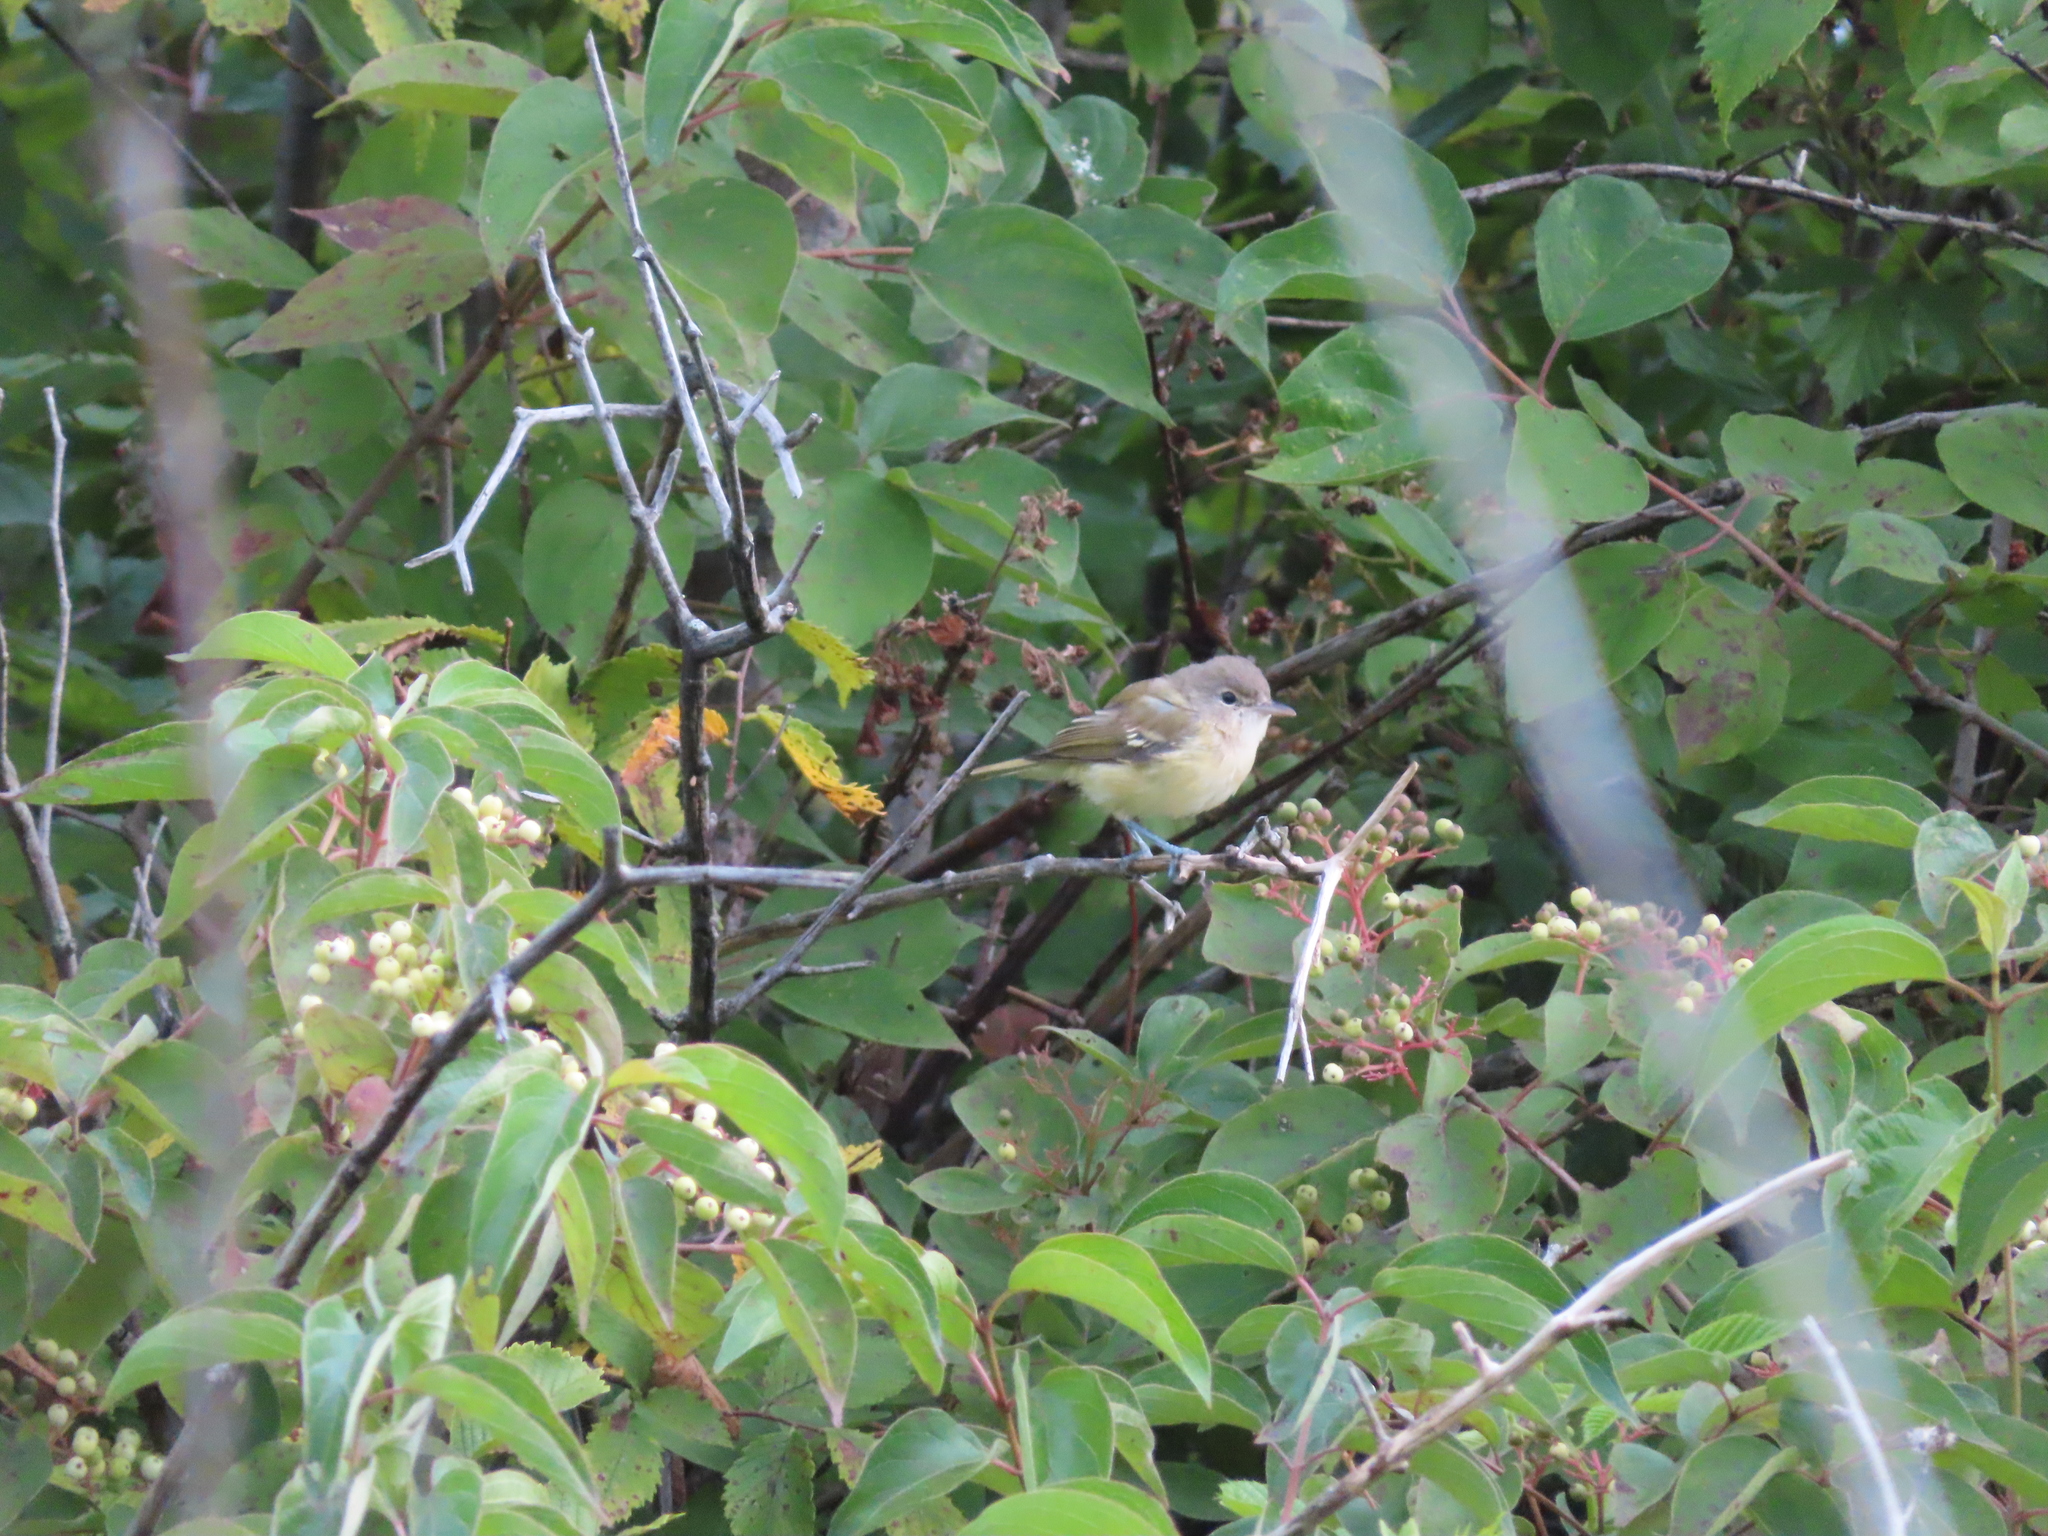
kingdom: Animalia
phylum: Chordata
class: Aves
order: Passeriformes
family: Vireonidae
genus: Vireo
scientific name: Vireo bellii
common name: Bell's vireo
